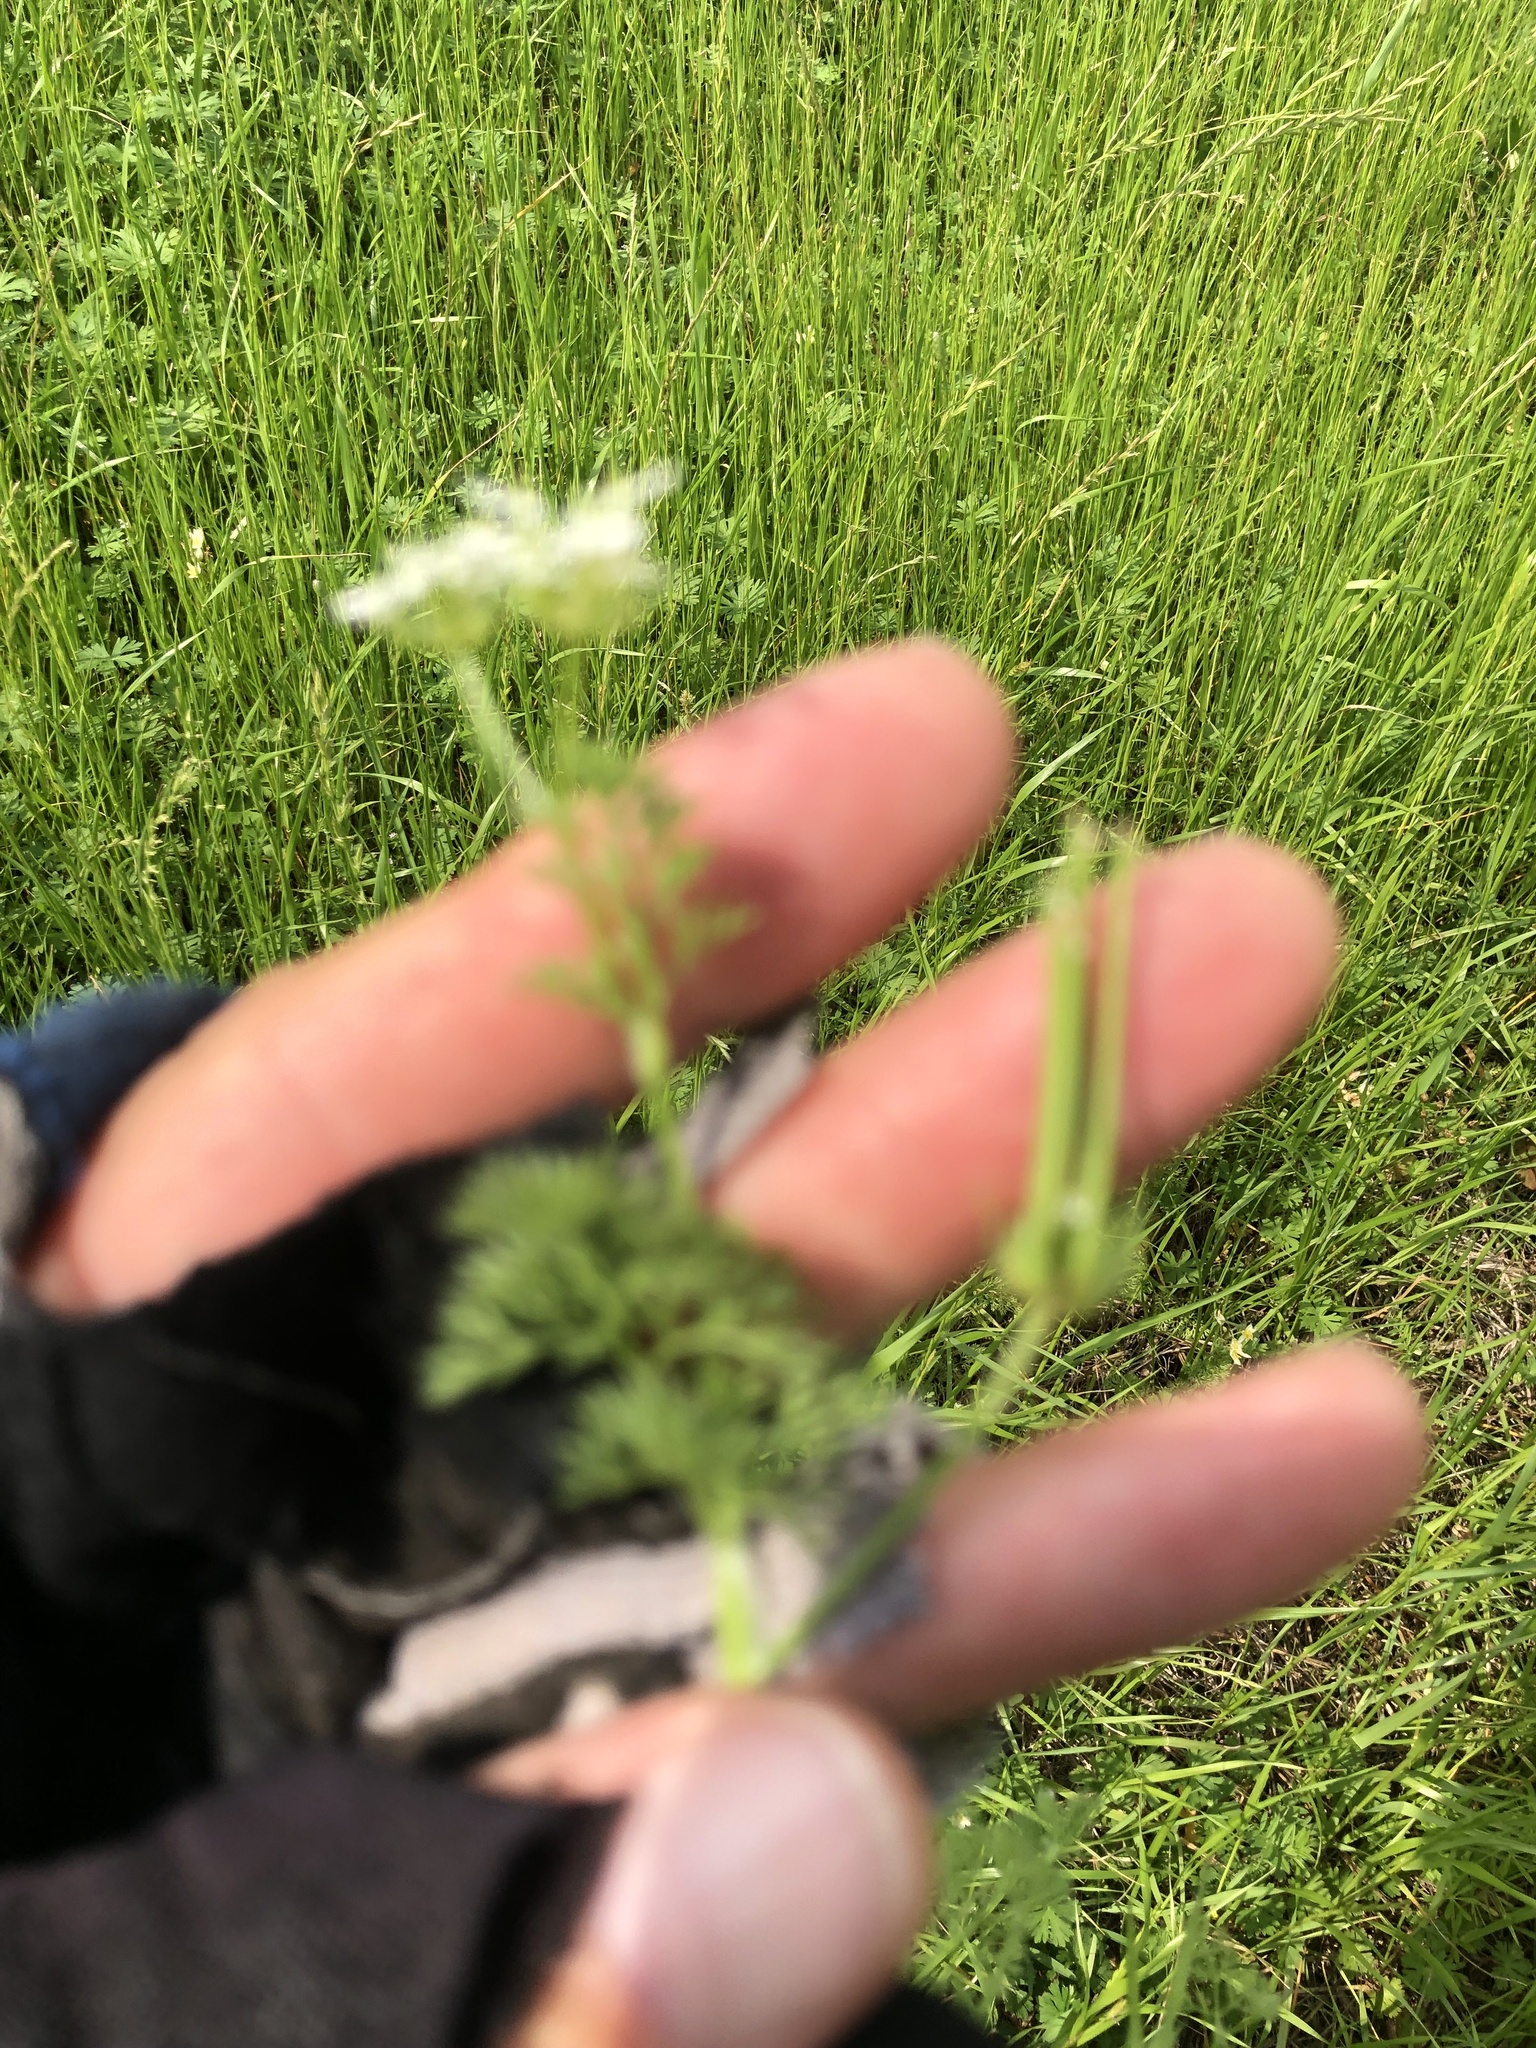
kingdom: Plantae
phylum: Tracheophyta
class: Magnoliopsida
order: Apiales
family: Apiaceae
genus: Scandix
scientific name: Scandix pecten-veneris
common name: Shepherd's-needle
